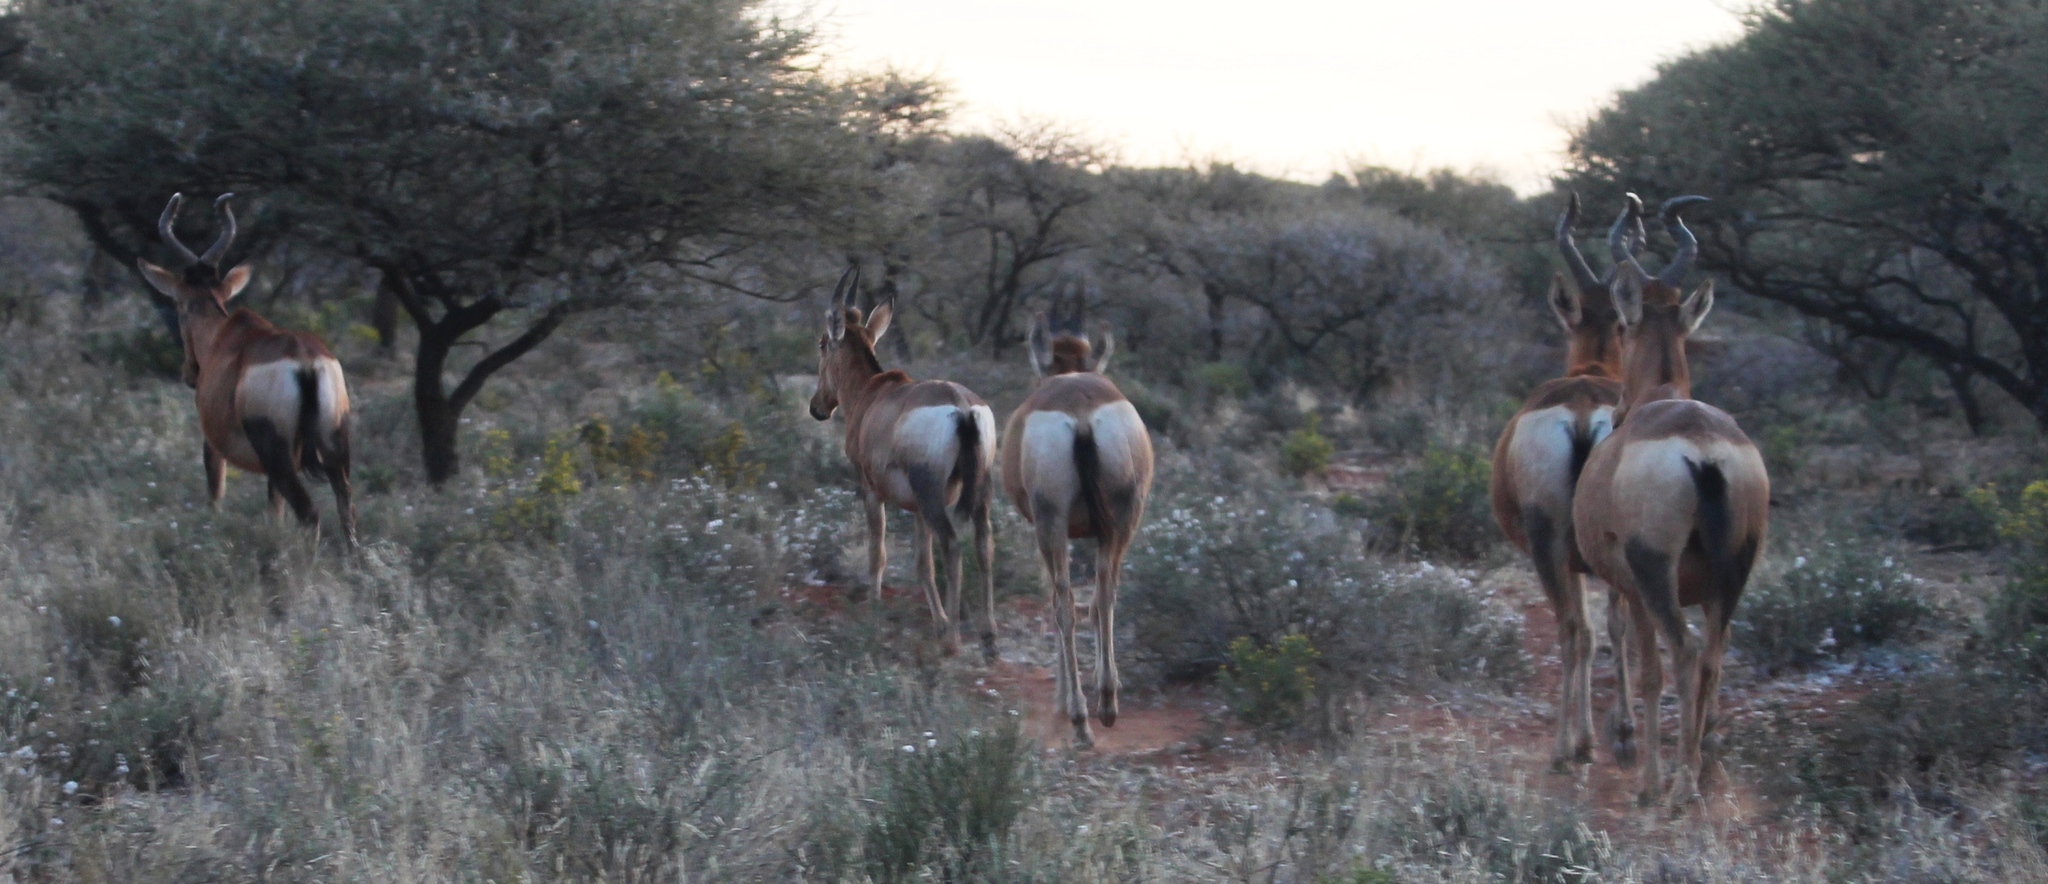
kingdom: Animalia
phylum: Chordata
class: Mammalia
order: Artiodactyla
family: Bovidae
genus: Alcelaphus
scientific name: Alcelaphus caama
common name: Red hartebeest
